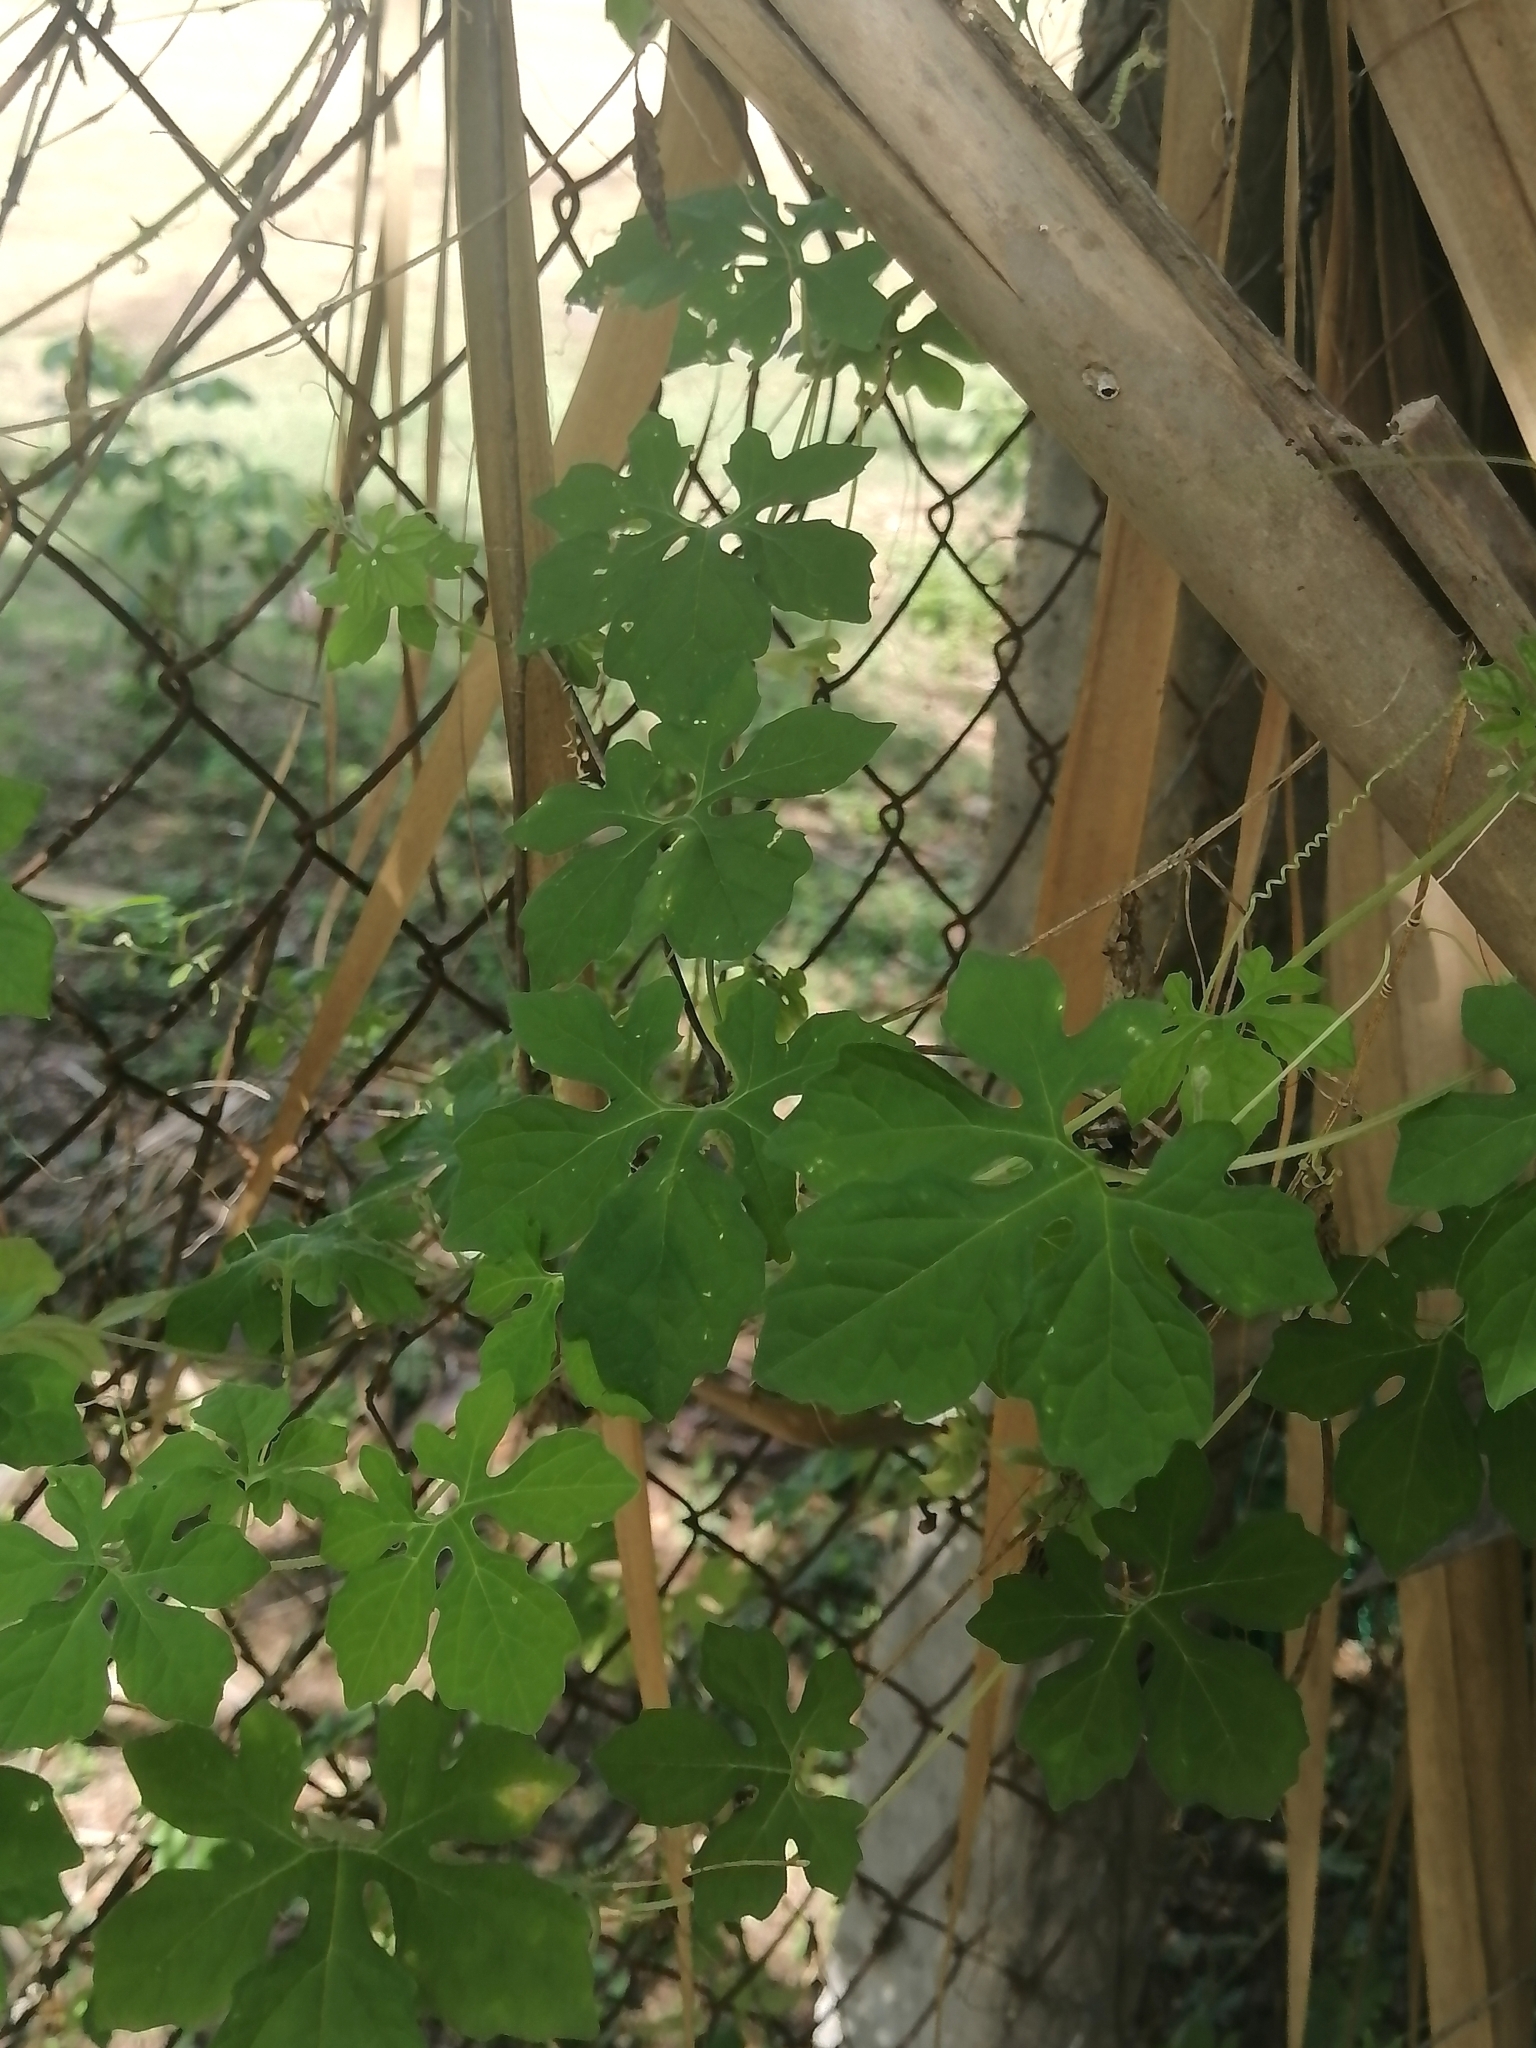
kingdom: Plantae
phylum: Tracheophyta
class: Magnoliopsida
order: Cucurbitales
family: Cucurbitaceae
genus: Momordica
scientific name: Momordica charantia
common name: Balsampear
